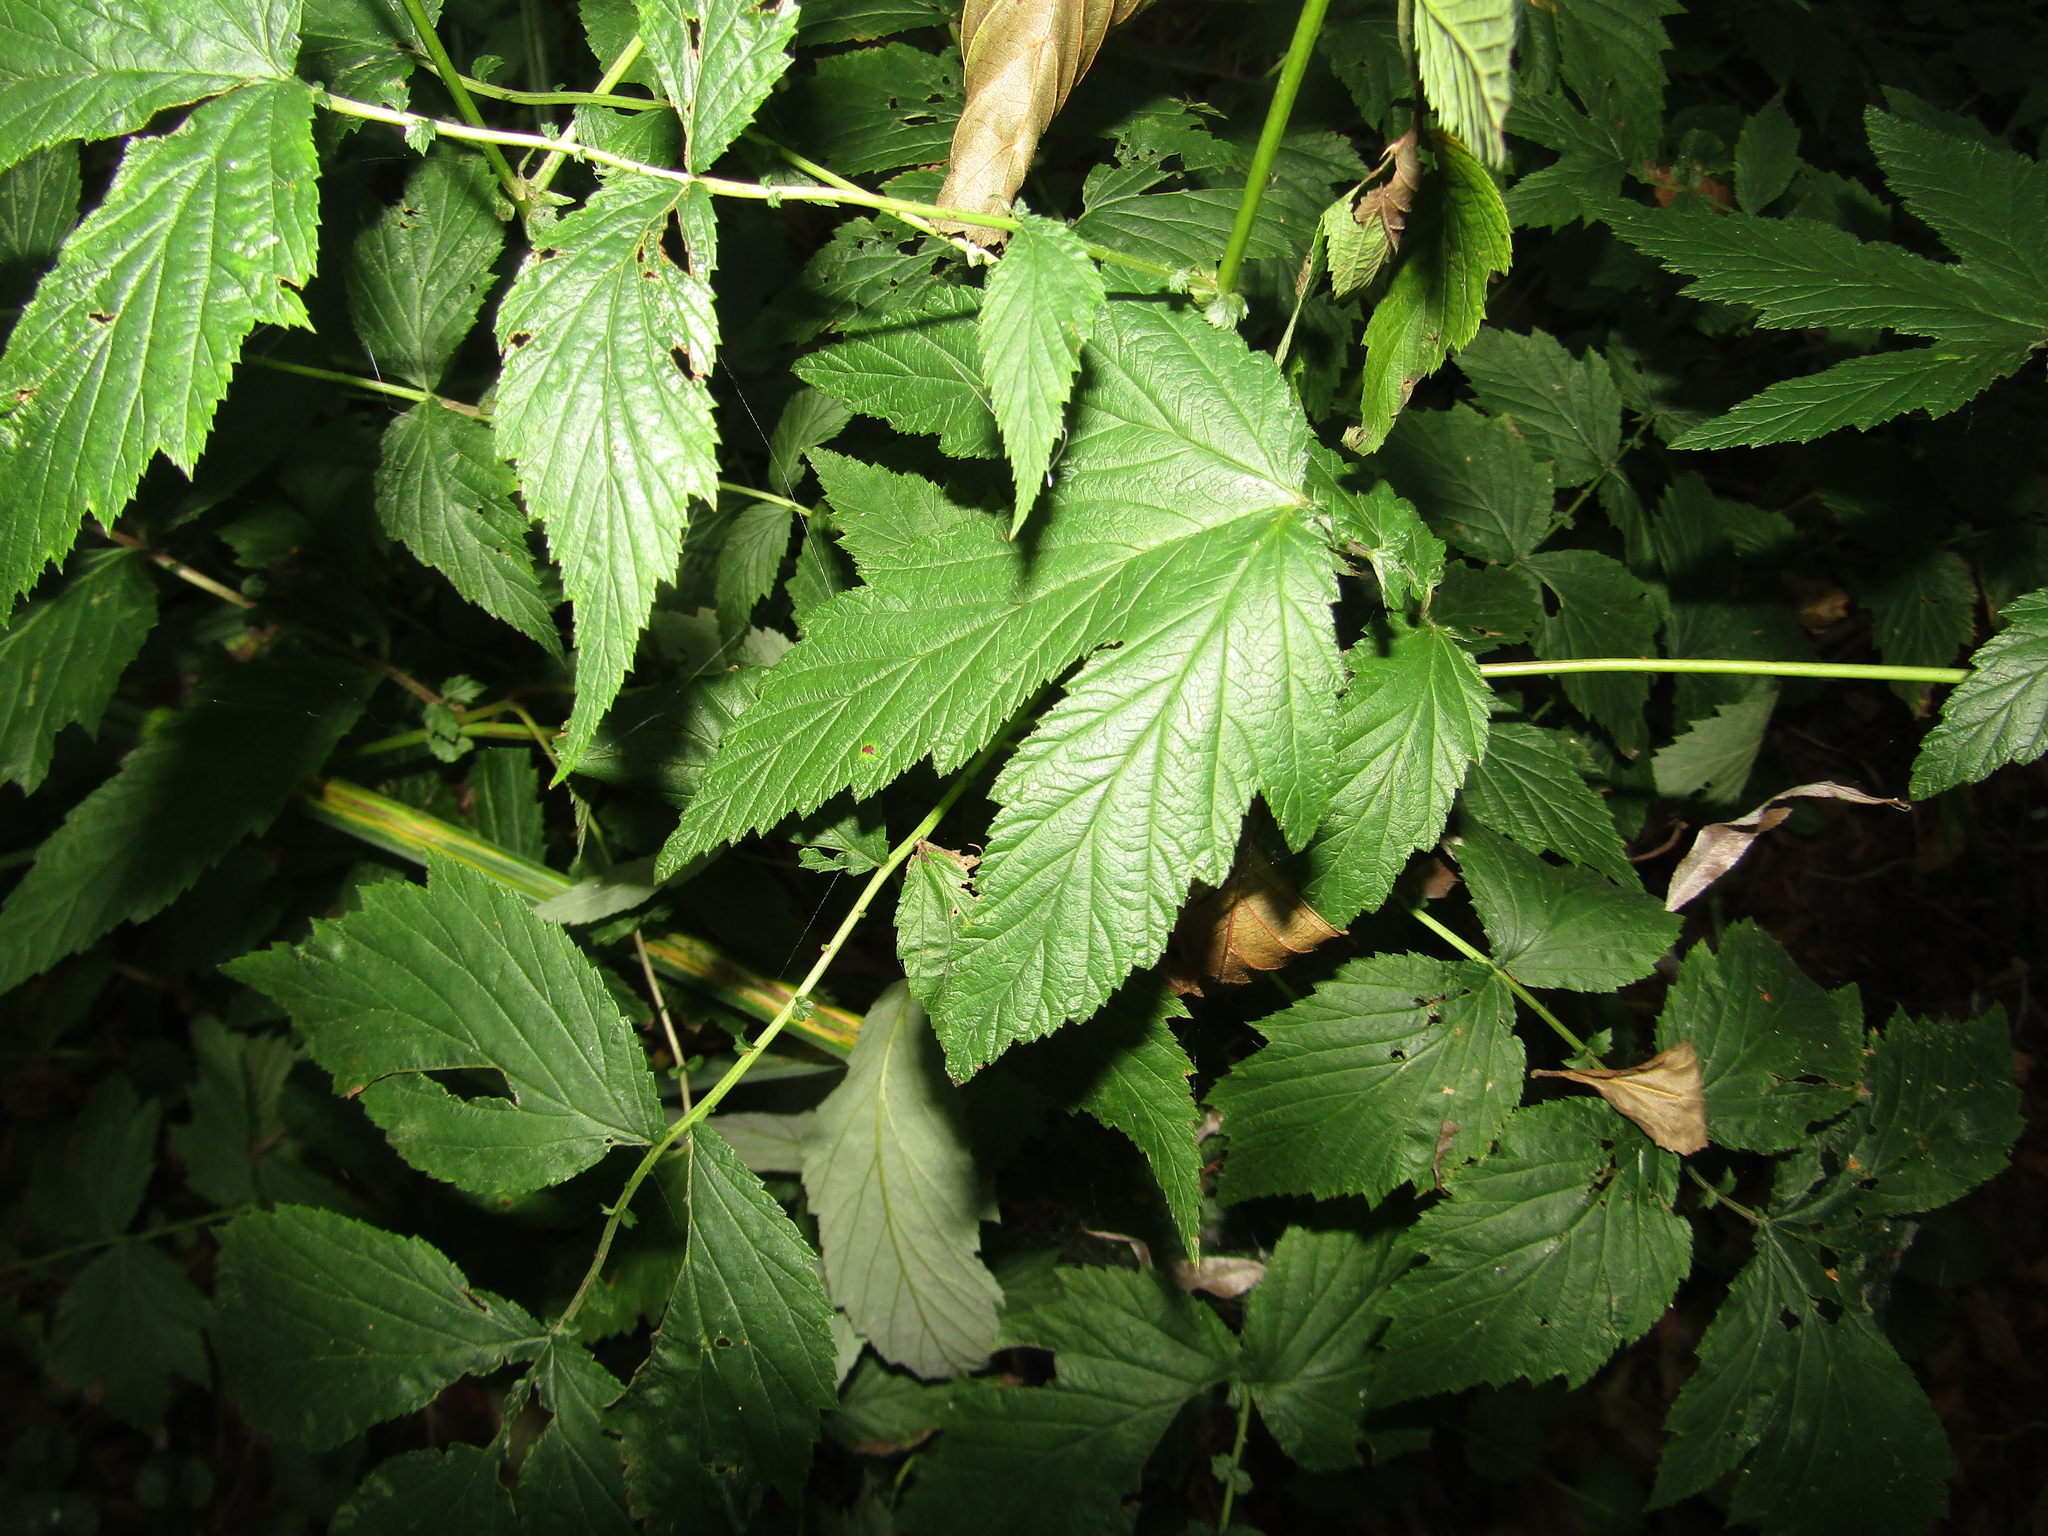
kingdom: Plantae
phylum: Tracheophyta
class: Magnoliopsida
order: Rosales
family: Rosaceae
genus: Filipendula
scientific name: Filipendula ulmaria
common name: Meadowsweet
